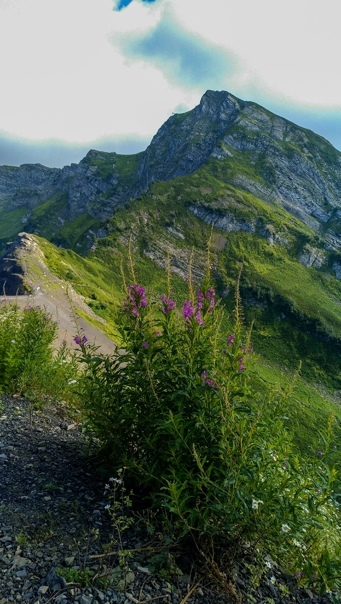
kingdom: Plantae
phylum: Tracheophyta
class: Magnoliopsida
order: Myrtales
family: Onagraceae
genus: Chamaenerion
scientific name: Chamaenerion angustifolium
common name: Fireweed
